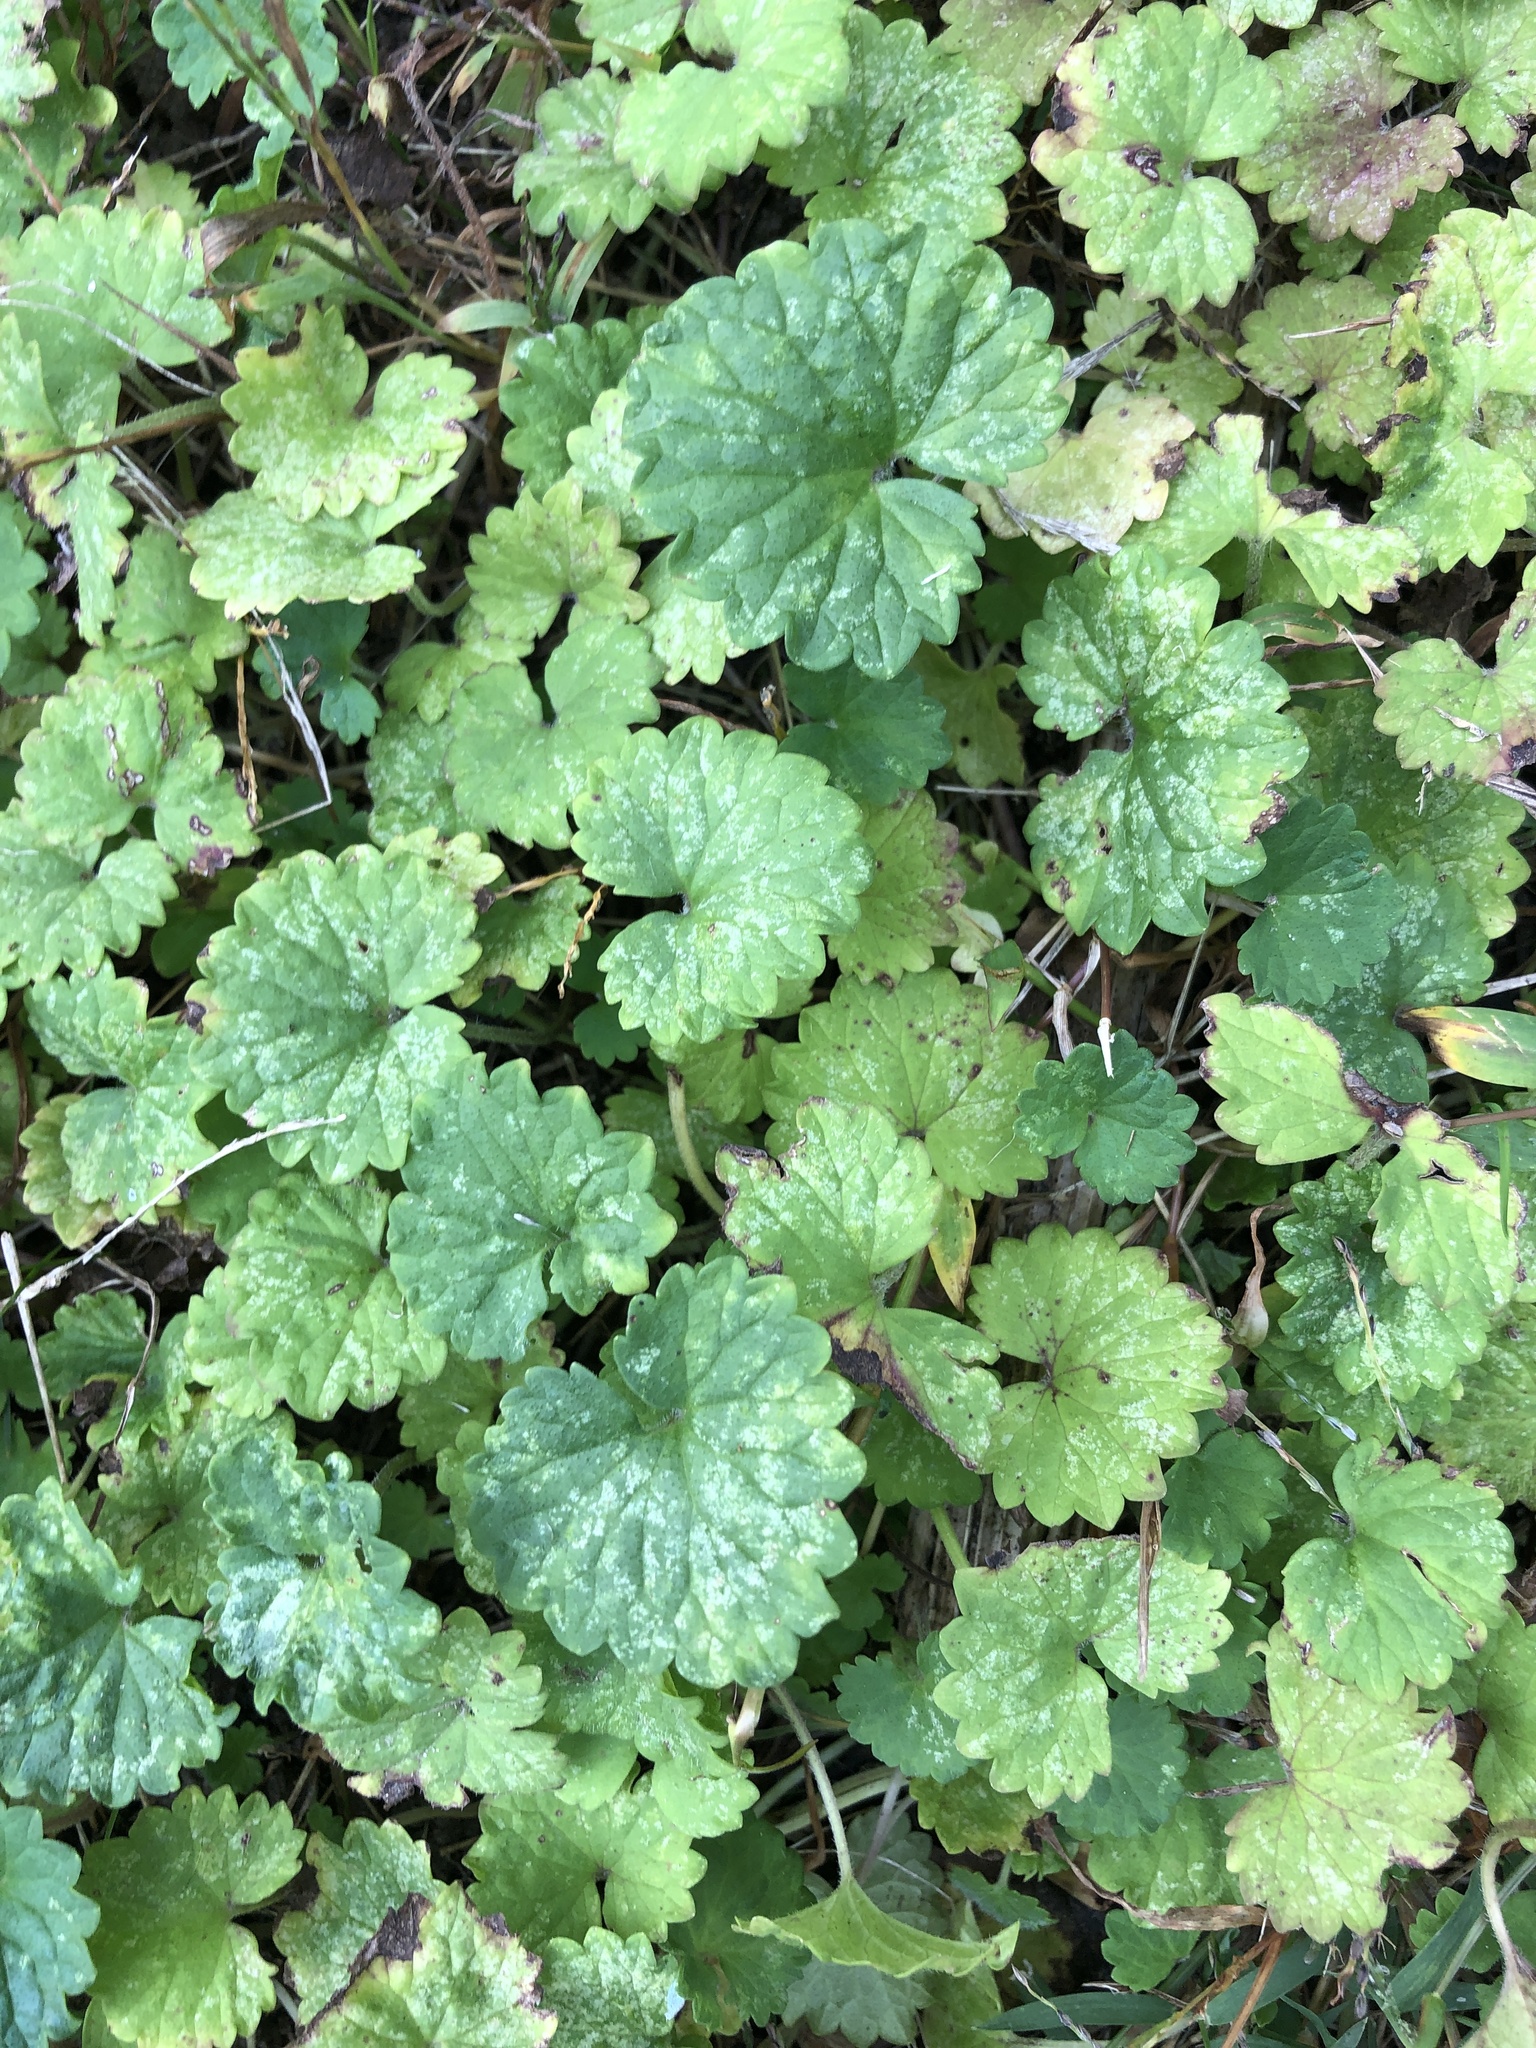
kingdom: Plantae
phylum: Tracheophyta
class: Magnoliopsida
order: Lamiales
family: Lamiaceae
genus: Glechoma
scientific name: Glechoma hederacea
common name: Ground ivy
